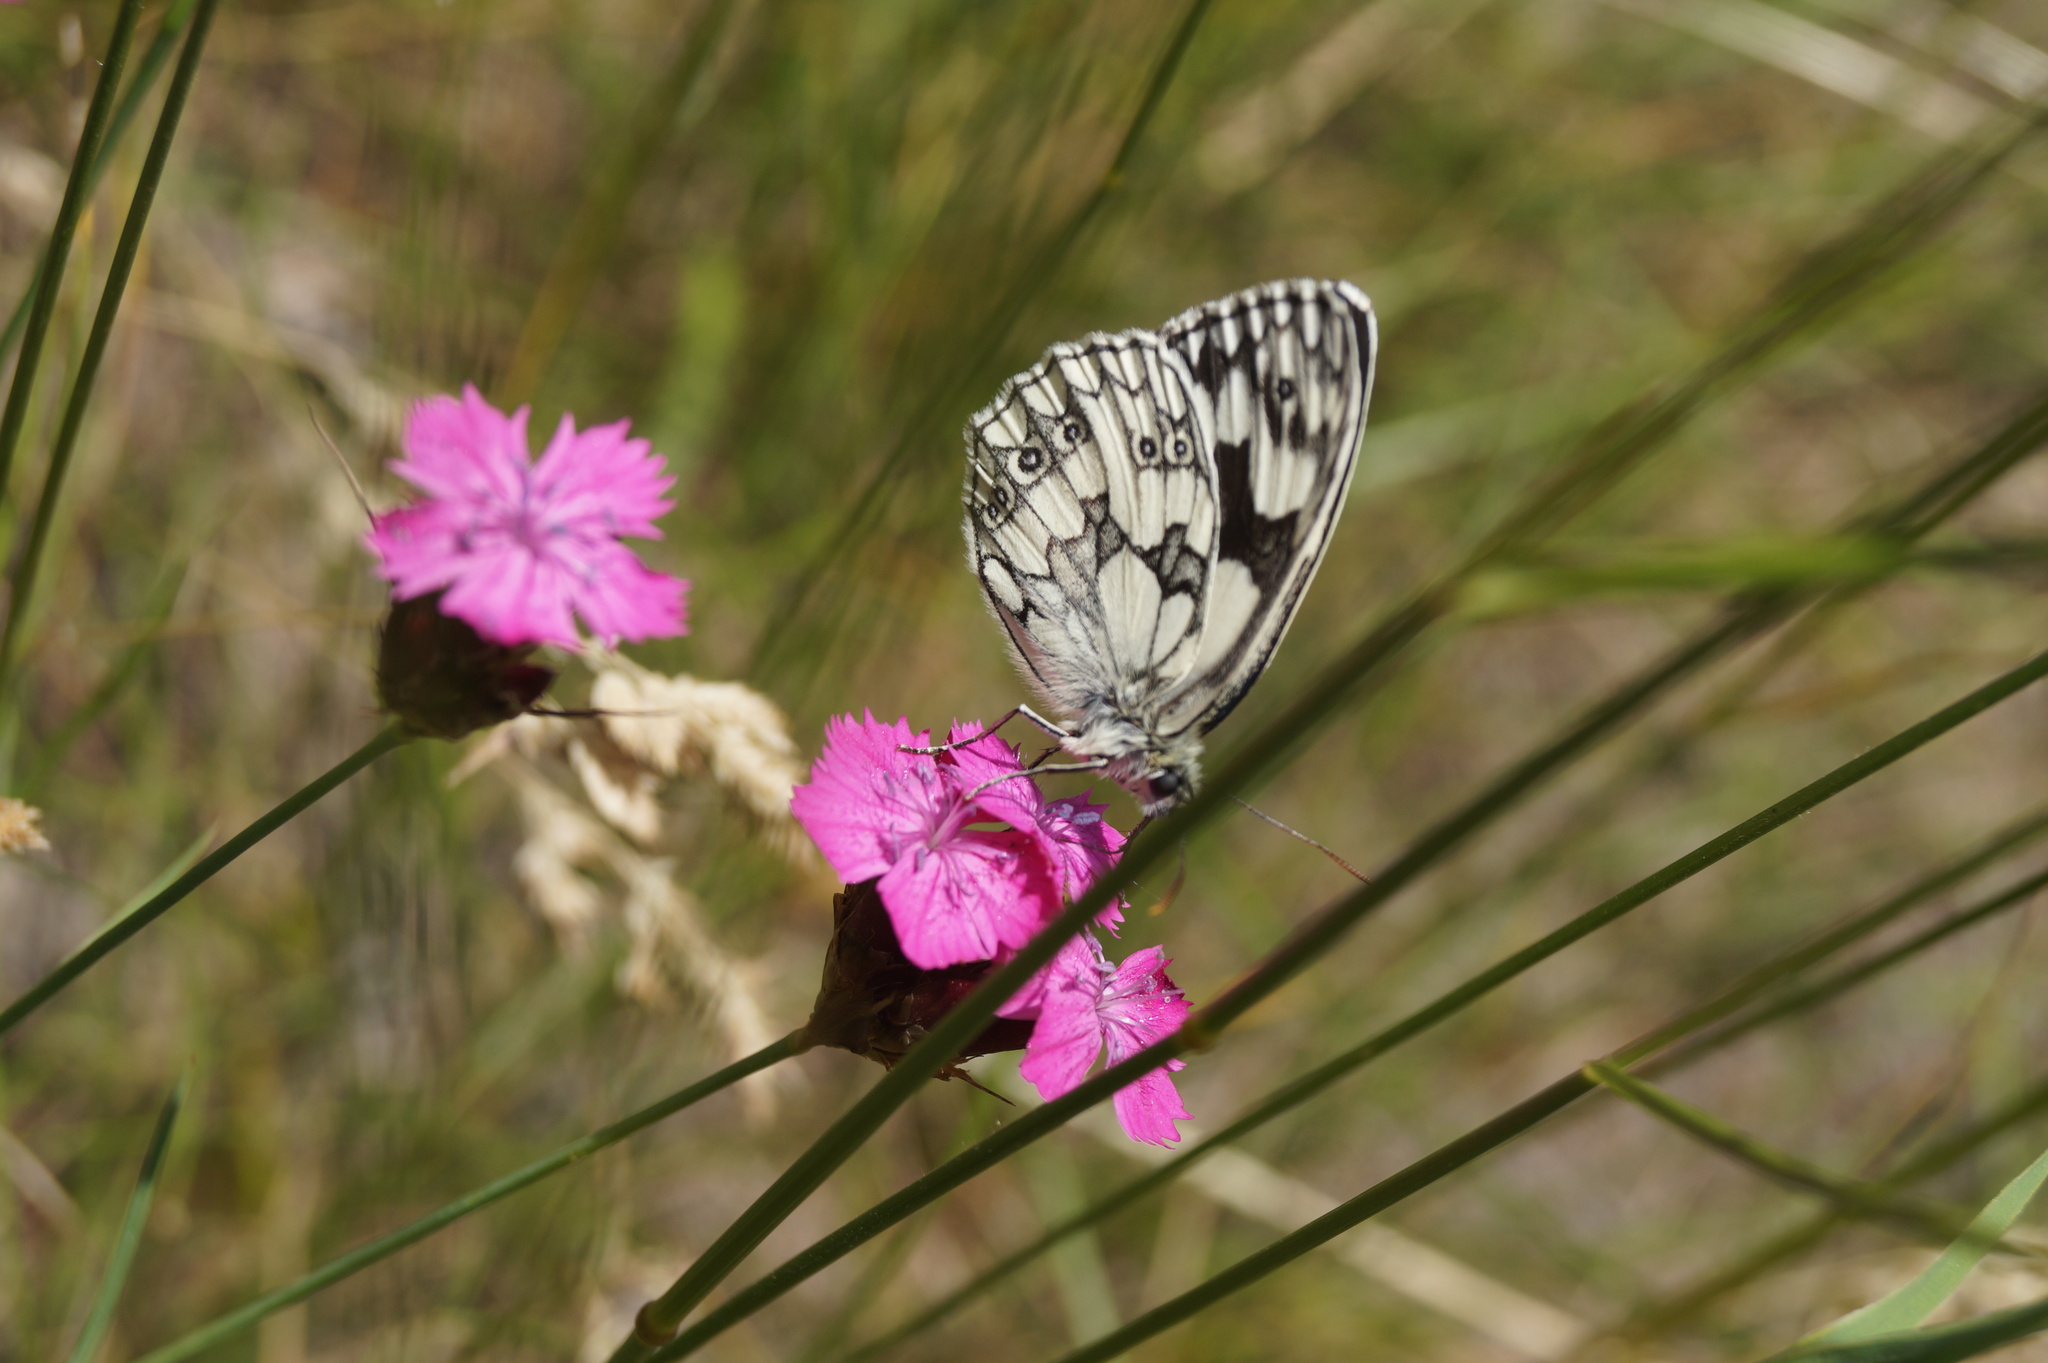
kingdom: Animalia
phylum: Arthropoda
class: Insecta
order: Lepidoptera
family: Nymphalidae
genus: Melanargia
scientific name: Melanargia galathea
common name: Marbled white
